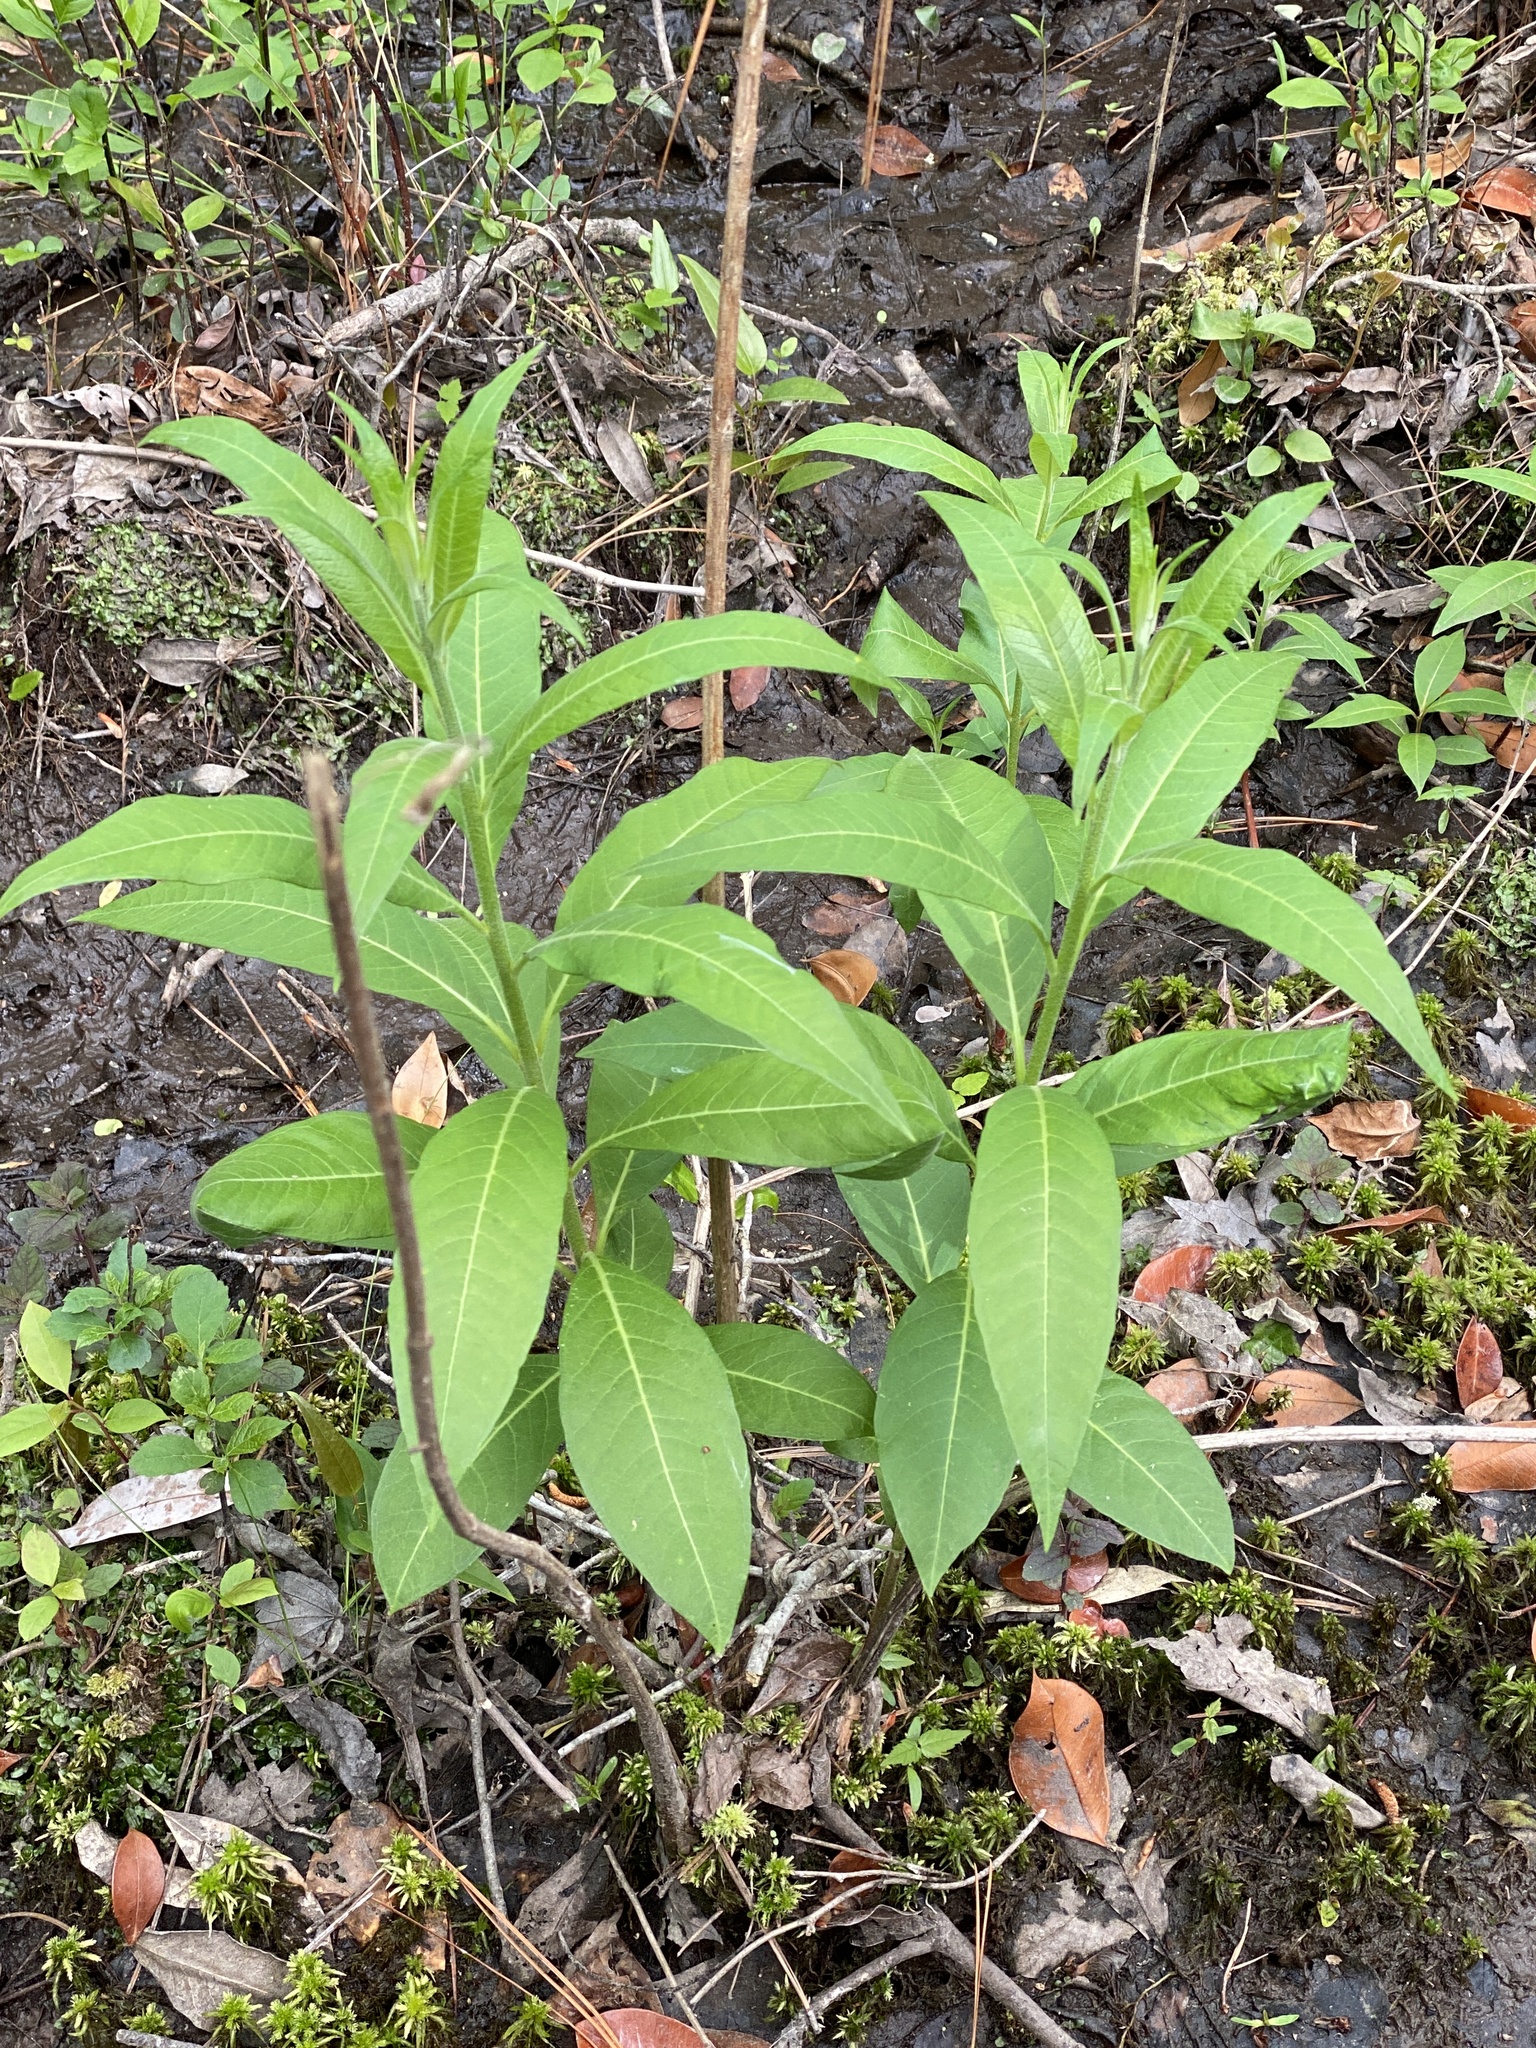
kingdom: Plantae
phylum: Tracheophyta
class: Magnoliopsida
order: Myrtales
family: Lythraceae
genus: Decodon
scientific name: Decodon verticillatus
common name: Hairy swamp loosestrife
